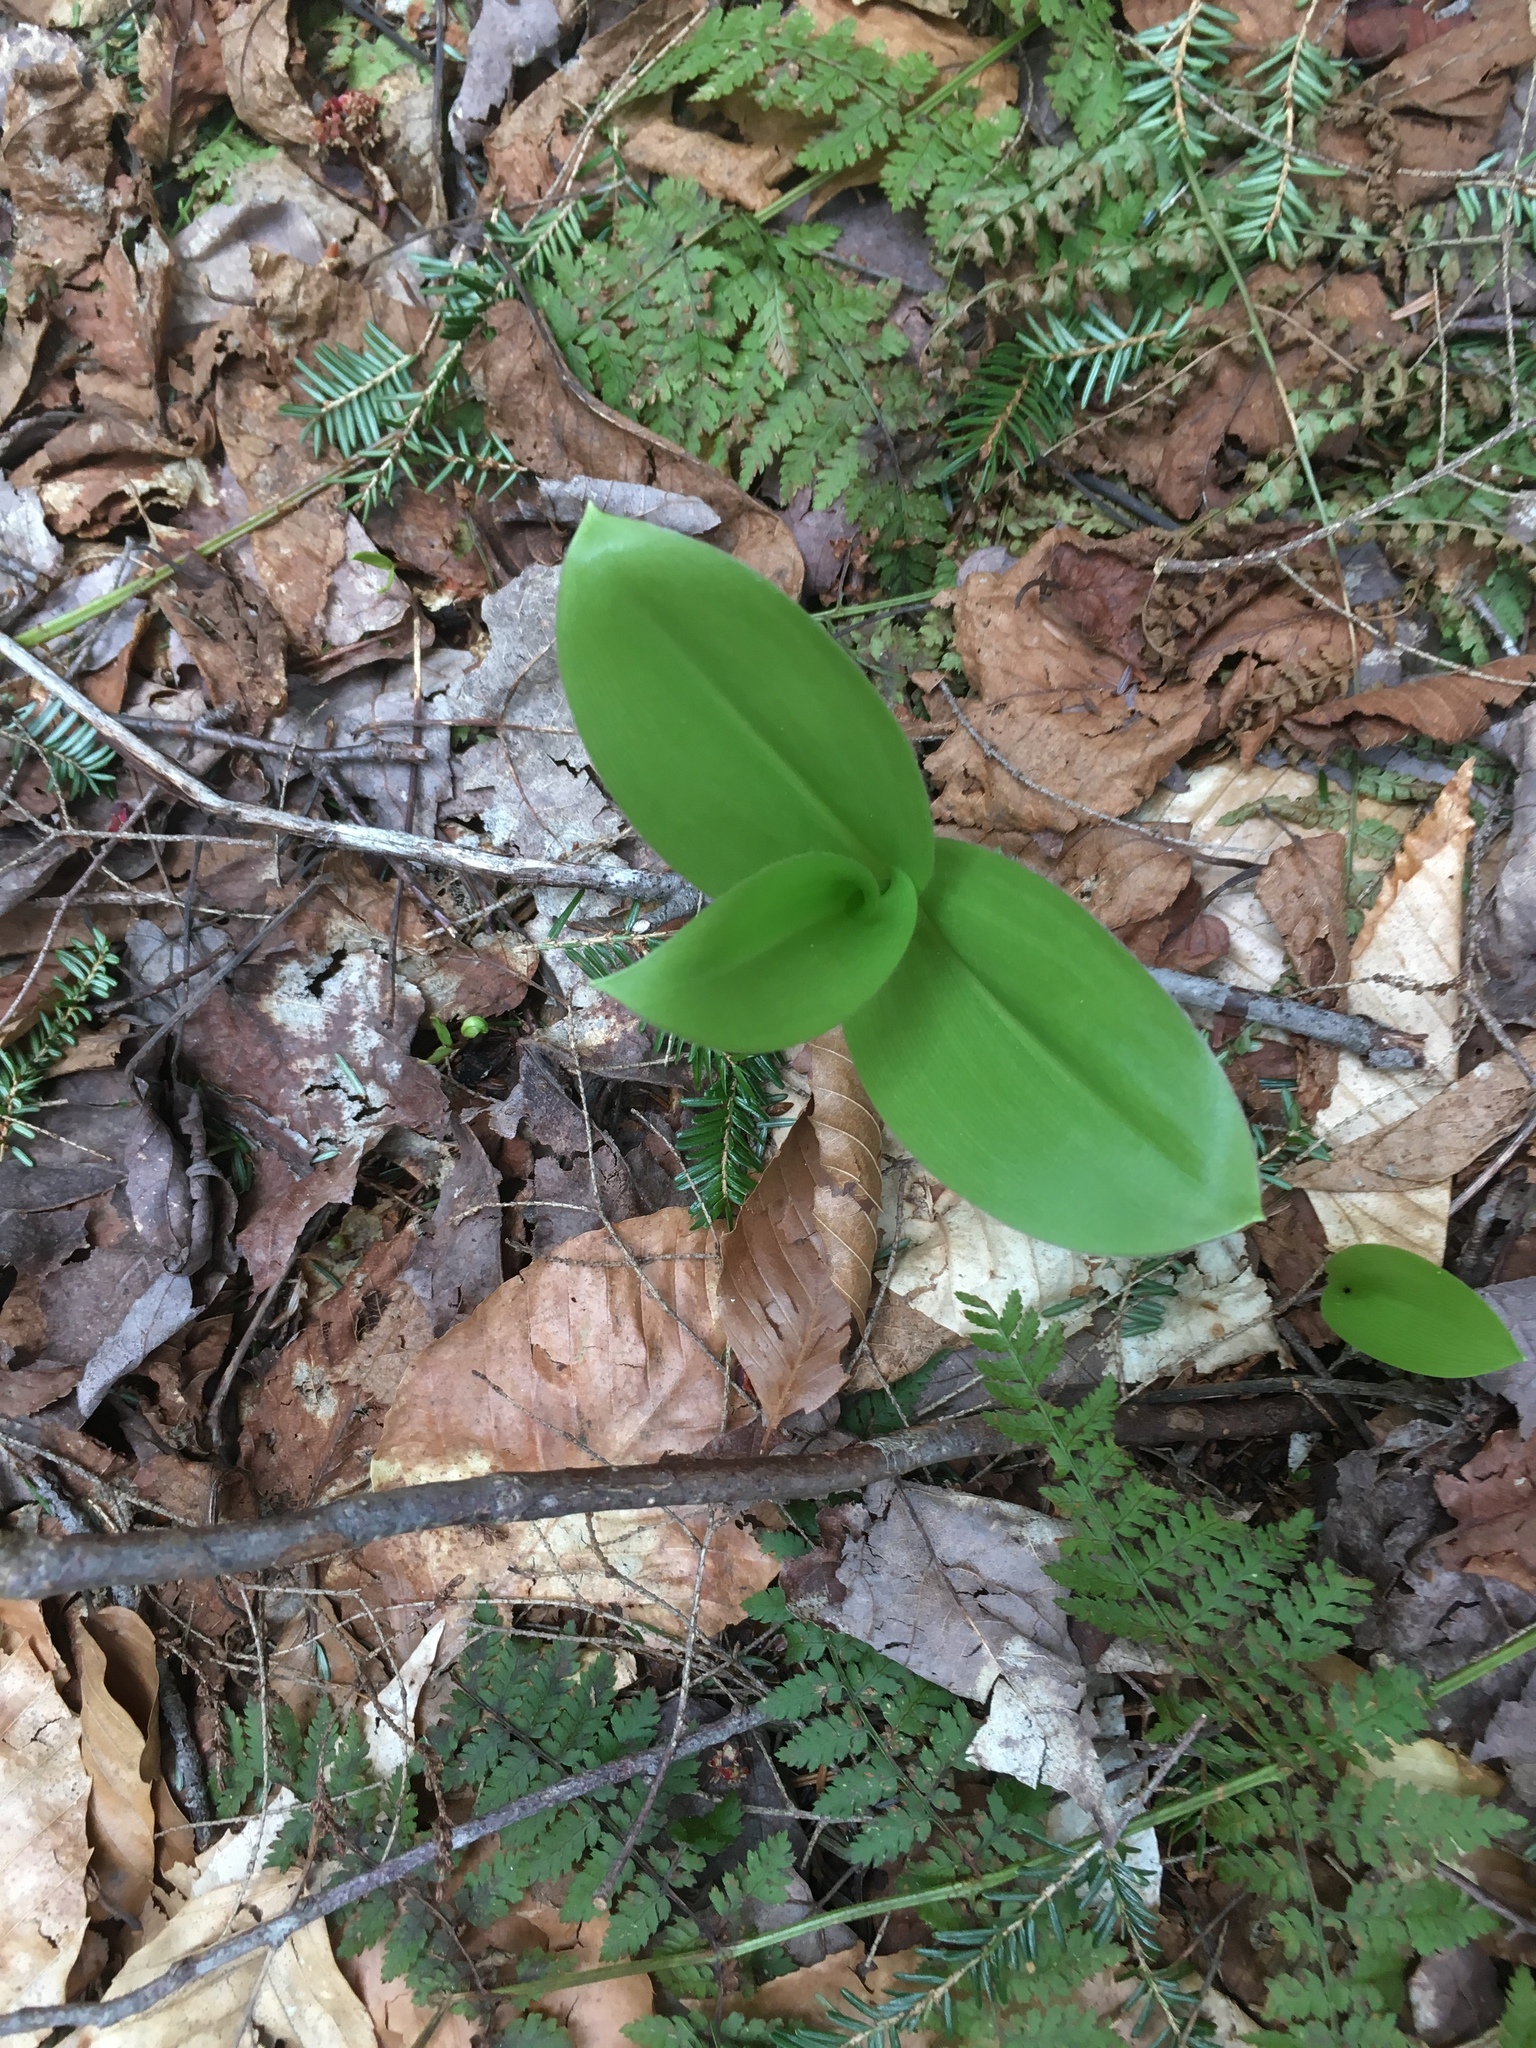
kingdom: Plantae
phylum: Tracheophyta
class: Liliopsida
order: Liliales
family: Liliaceae
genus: Clintonia
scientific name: Clintonia borealis
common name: Yellow clintonia
